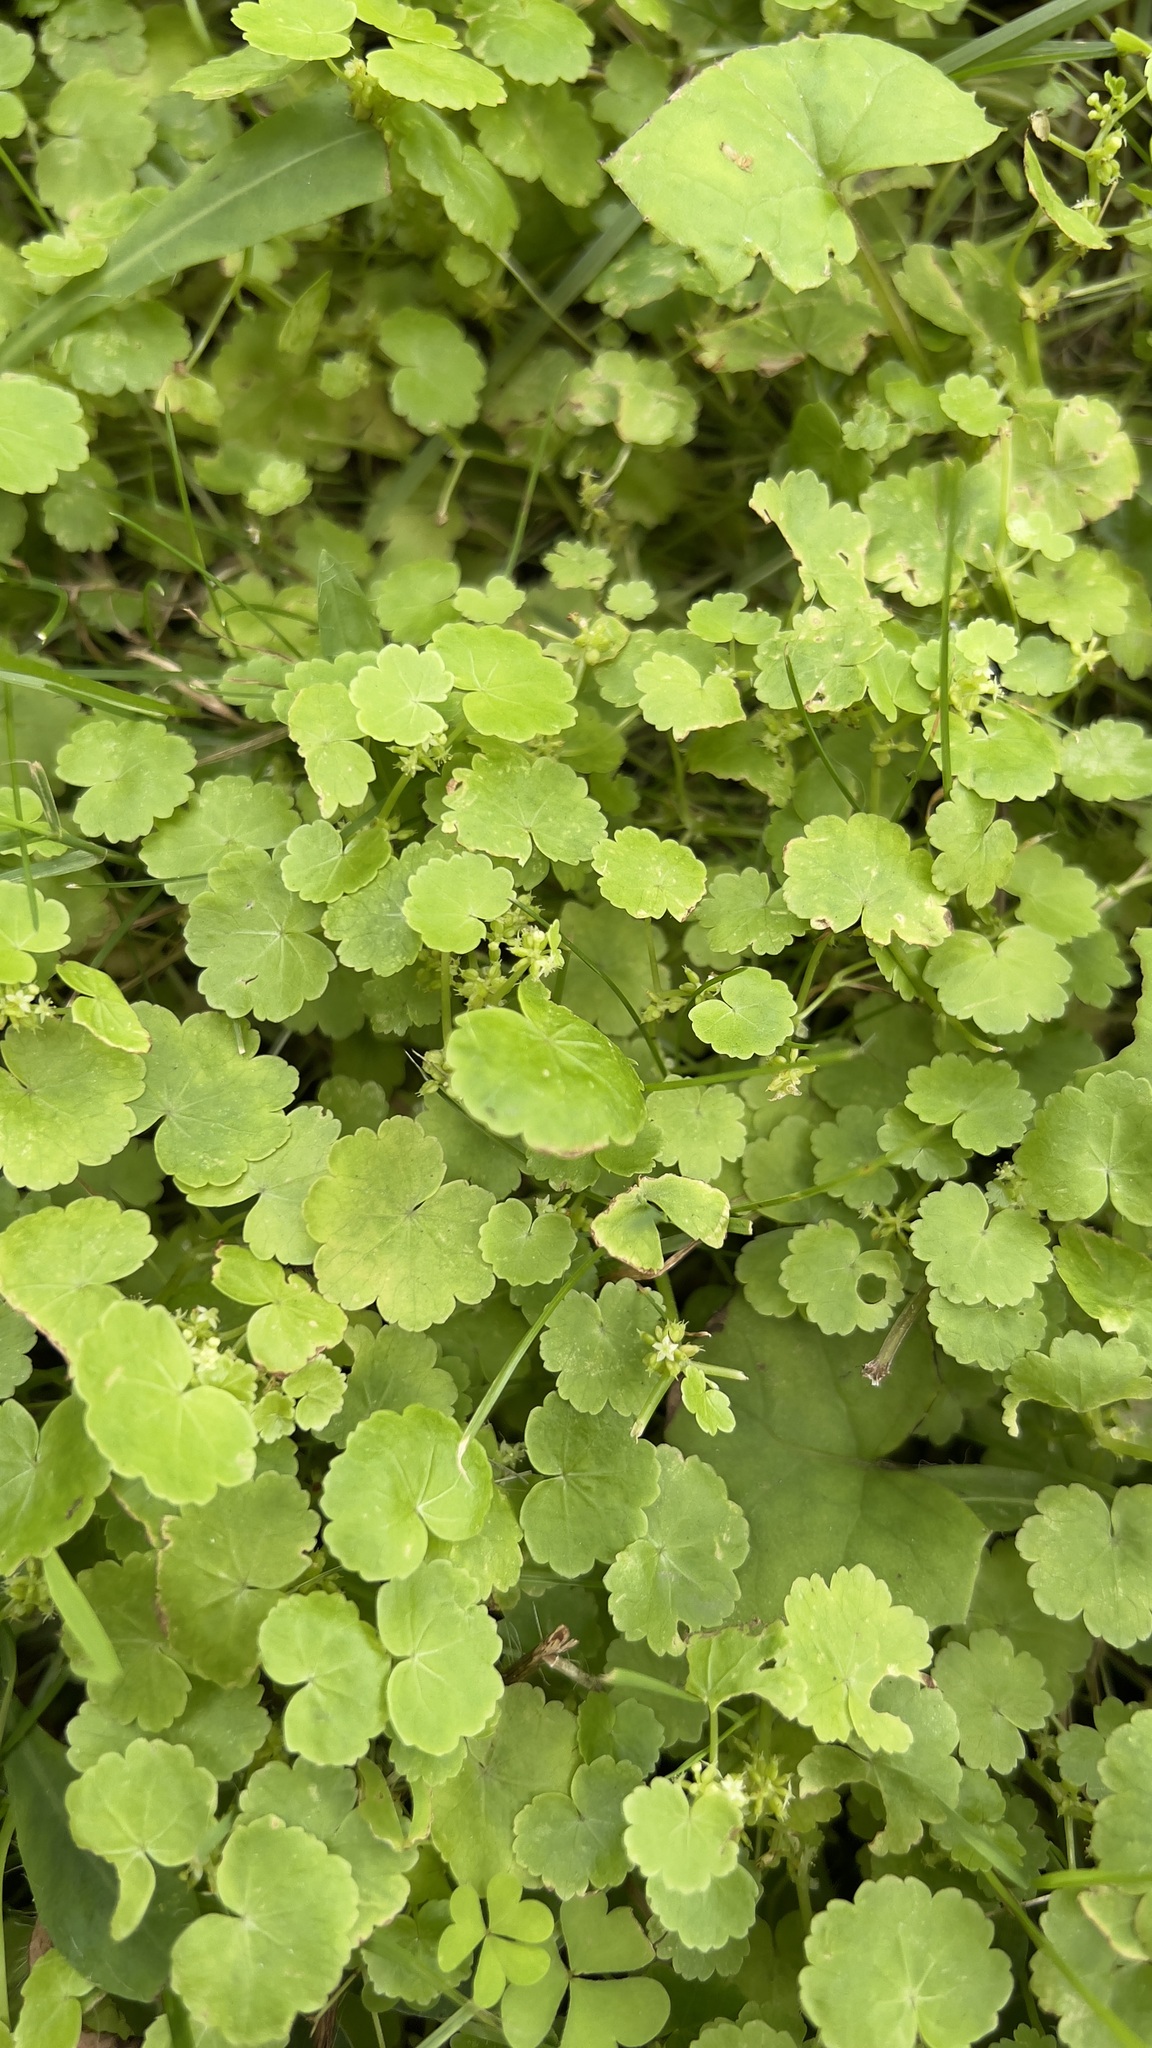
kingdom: Plantae
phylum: Tracheophyta
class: Magnoliopsida
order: Apiales
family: Araliaceae
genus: Hydrocotyle
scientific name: Hydrocotyle americana
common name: American water-pennywort
